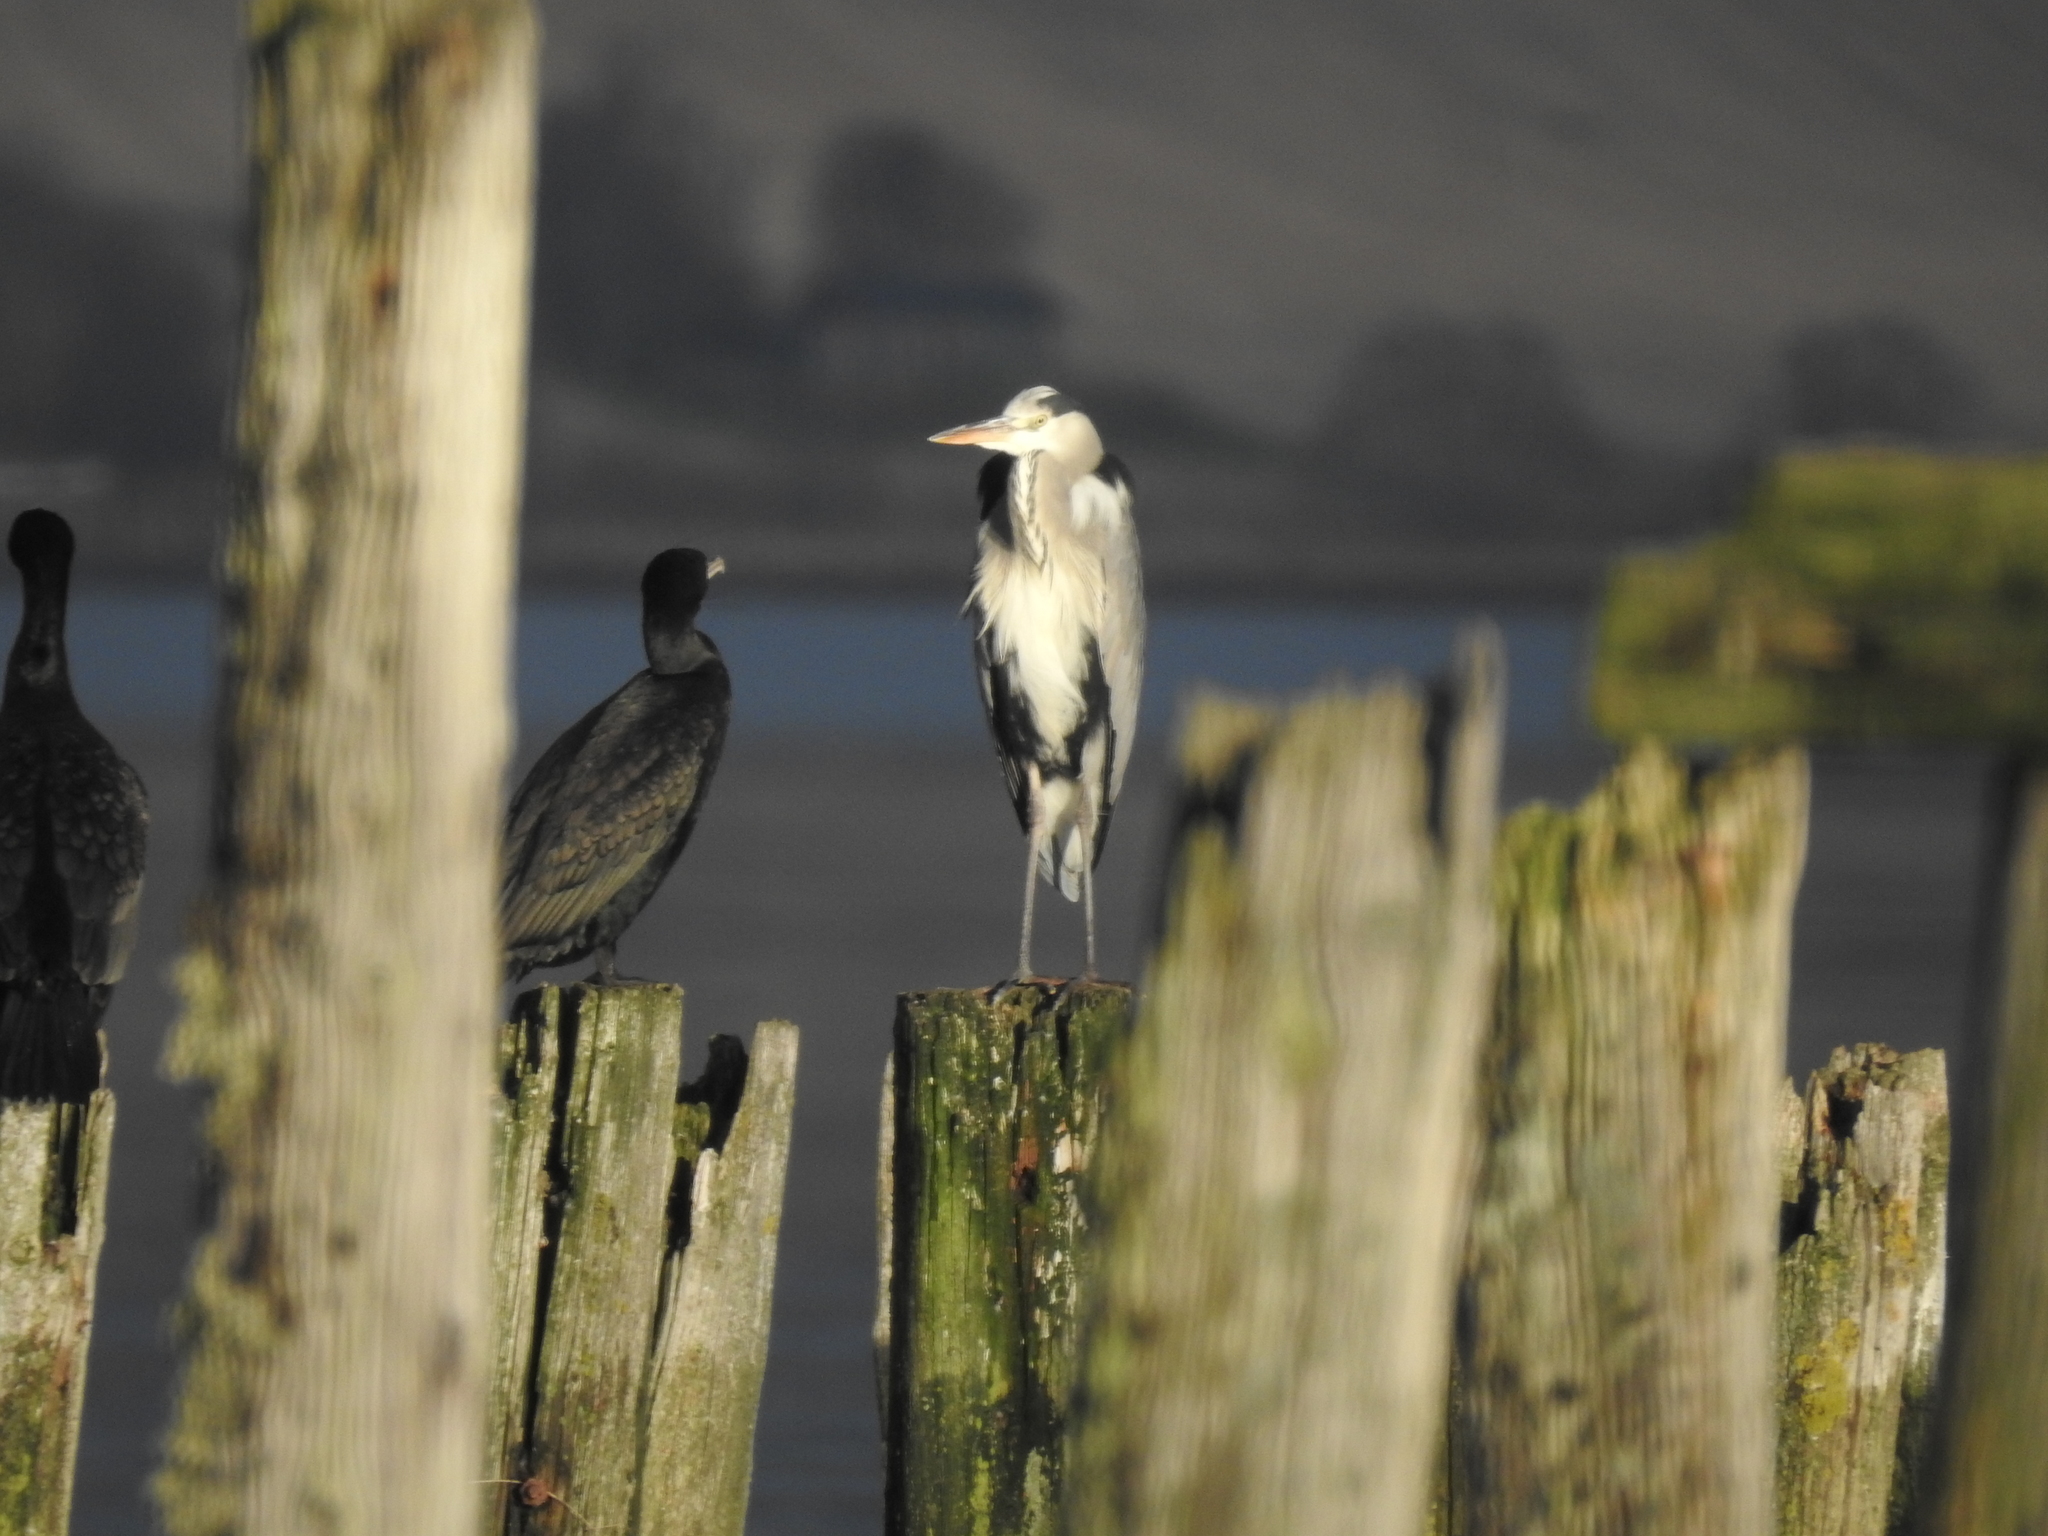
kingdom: Animalia
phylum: Chordata
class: Aves
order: Pelecaniformes
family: Ardeidae
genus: Ardea
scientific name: Ardea cinerea
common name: Grey heron
